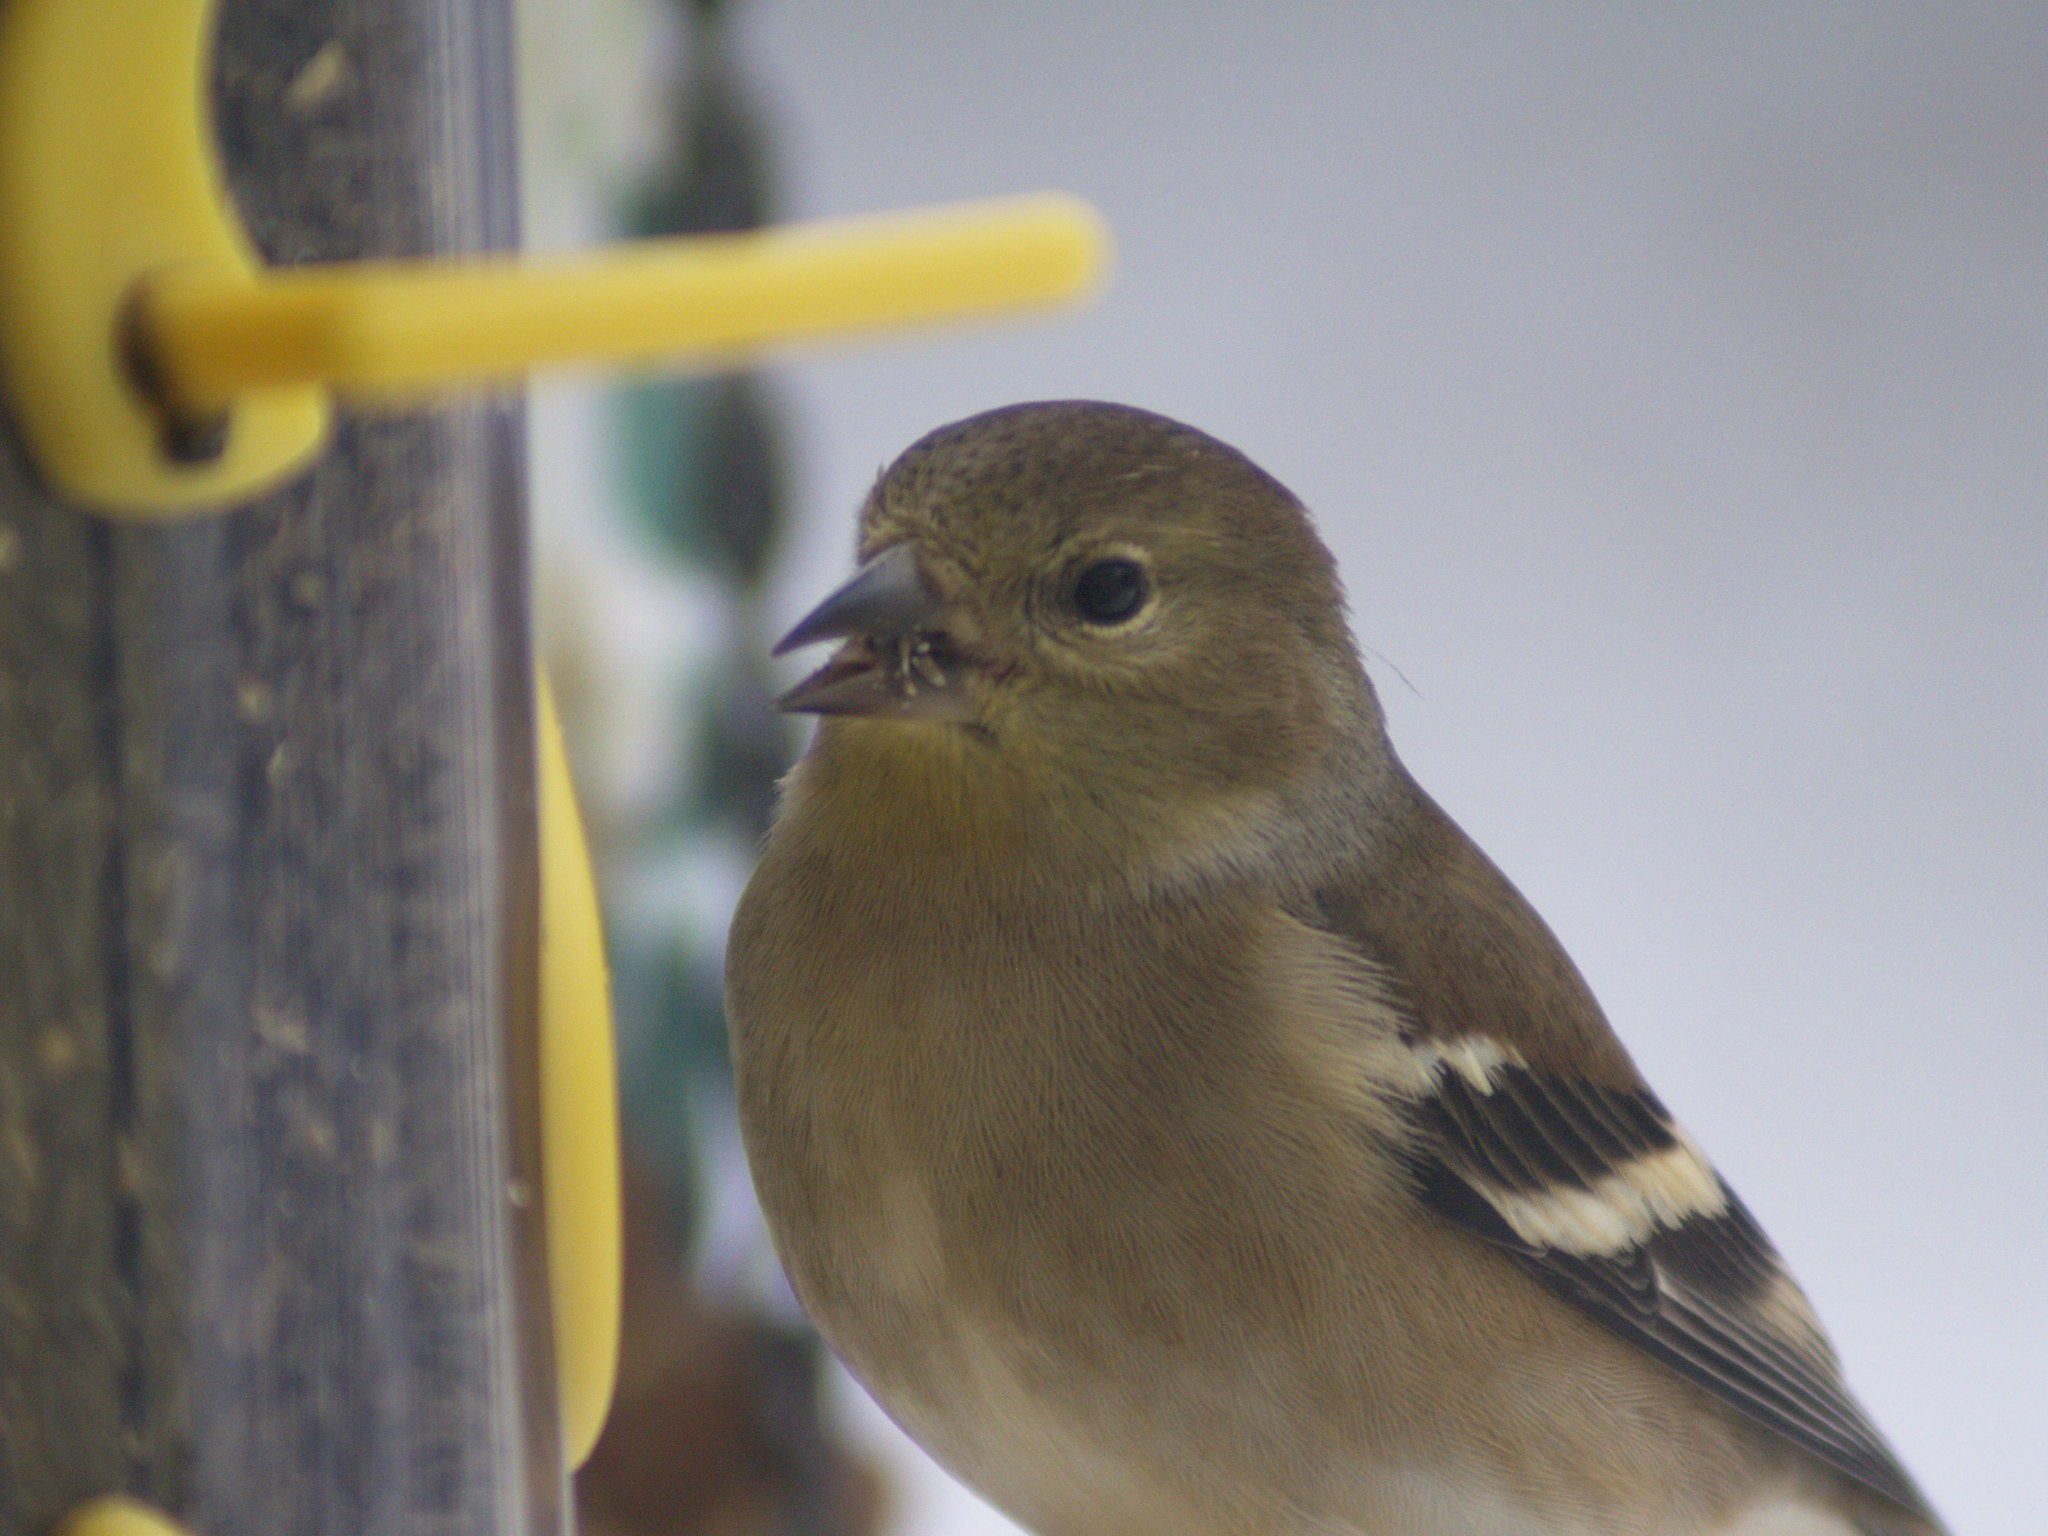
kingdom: Animalia
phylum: Chordata
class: Aves
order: Passeriformes
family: Fringillidae
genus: Spinus
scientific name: Spinus tristis
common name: American goldfinch
